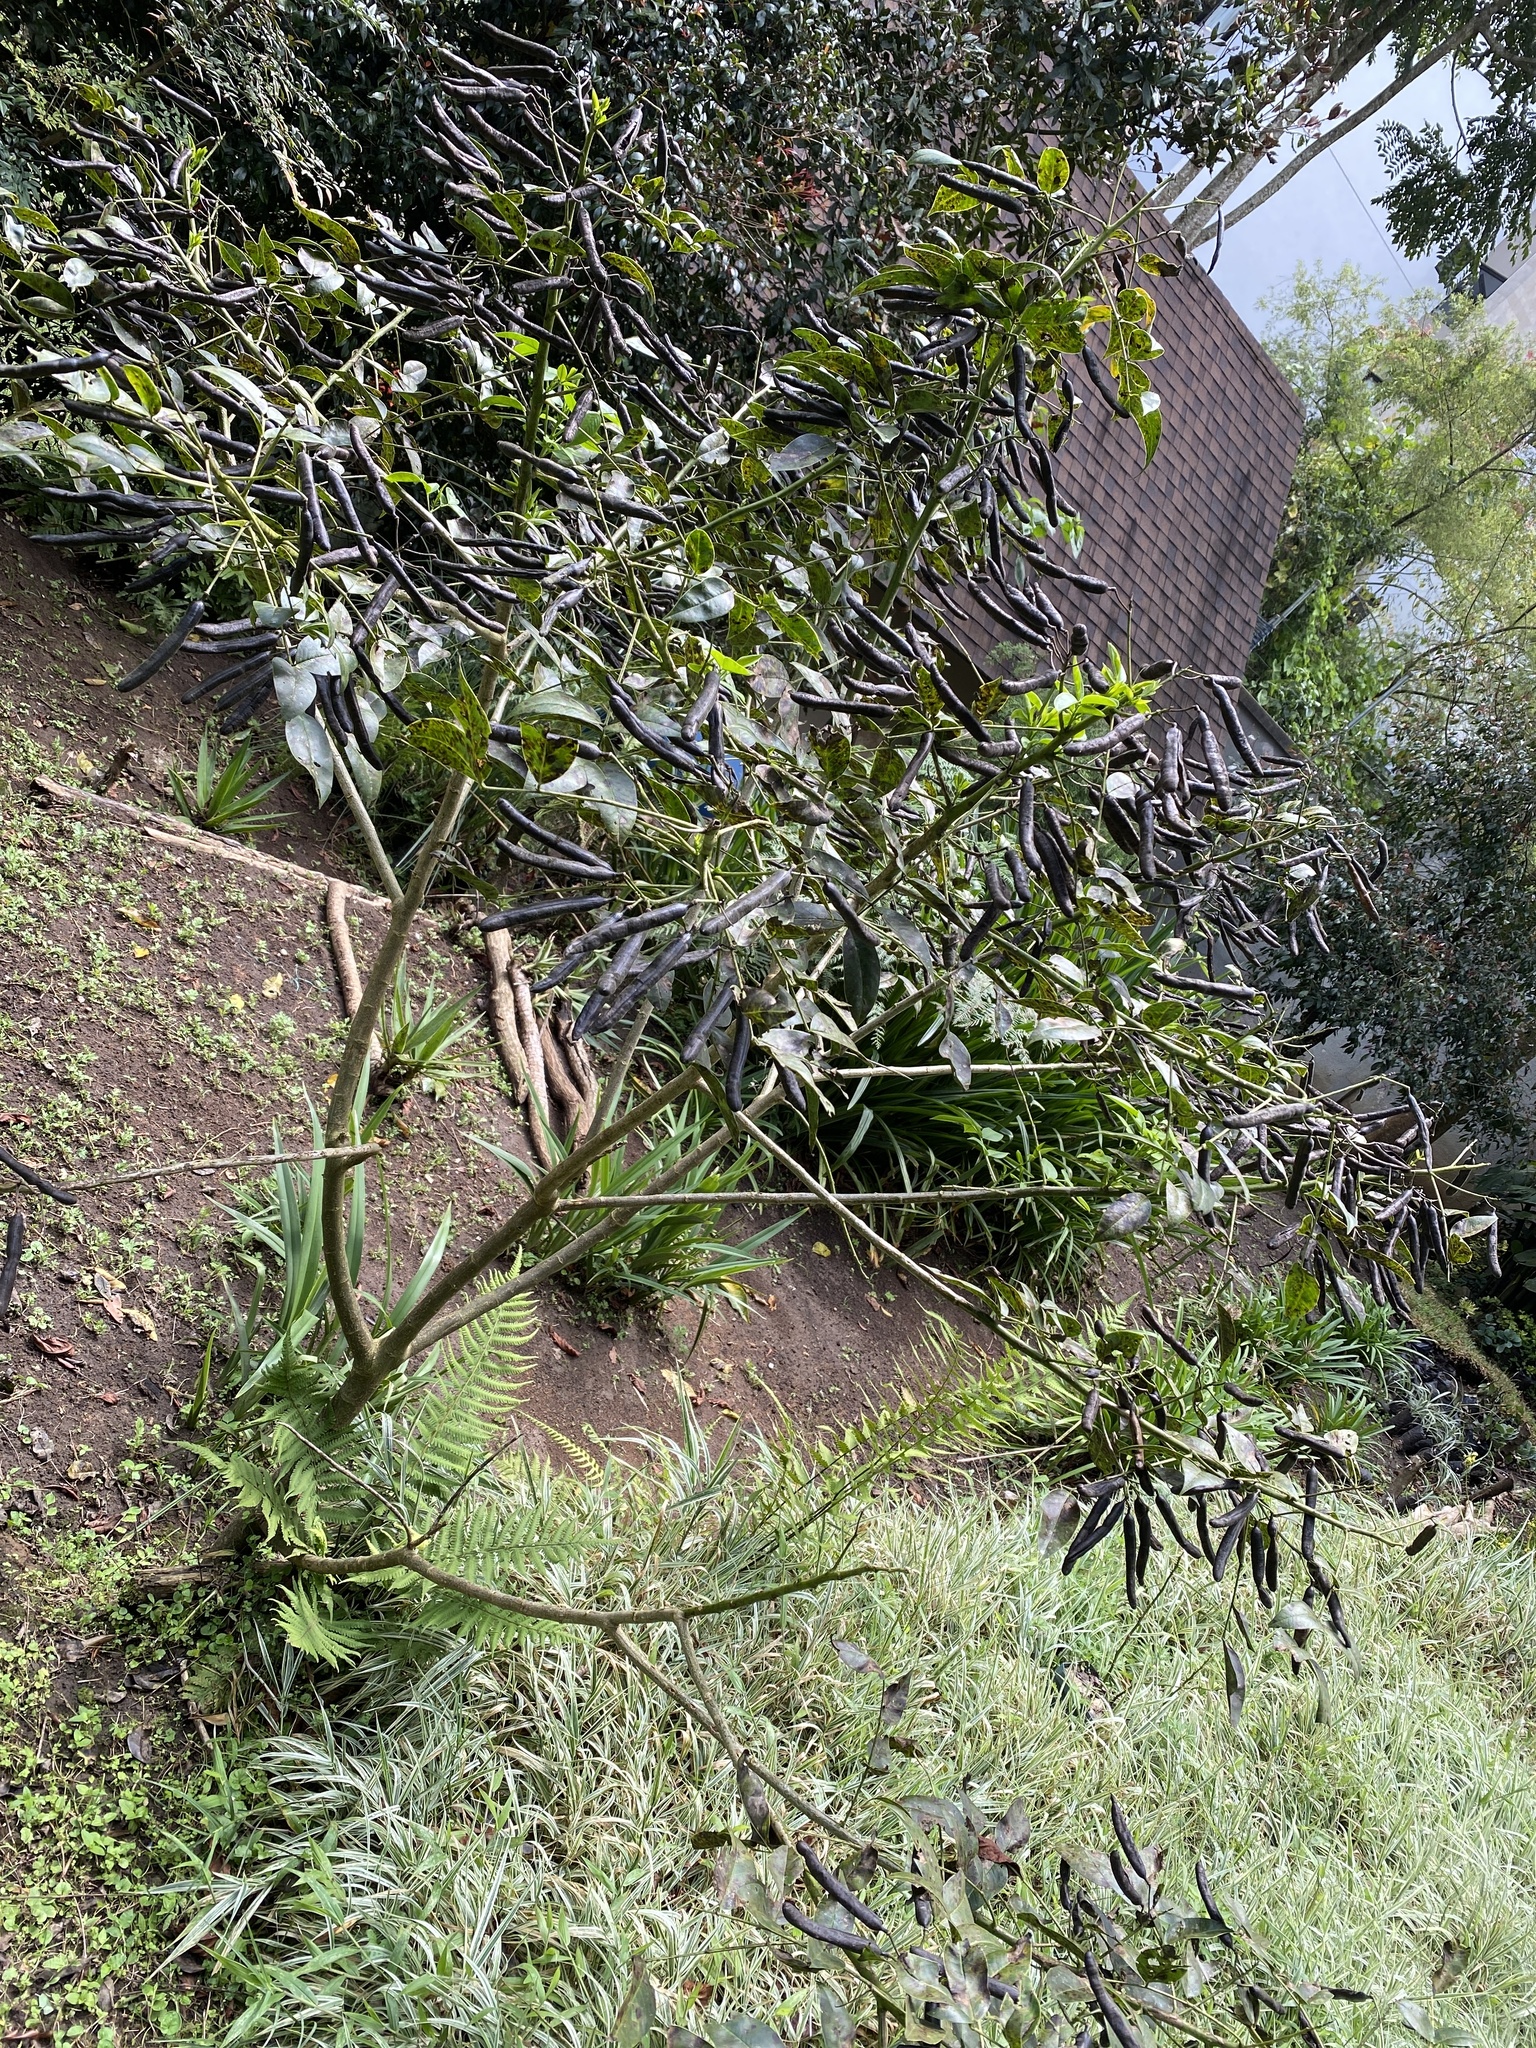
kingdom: Plantae
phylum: Tracheophyta
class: Magnoliopsida
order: Fabales
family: Fabaceae
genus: Senna
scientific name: Senna septemtrionalis
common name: Arsenic bush
